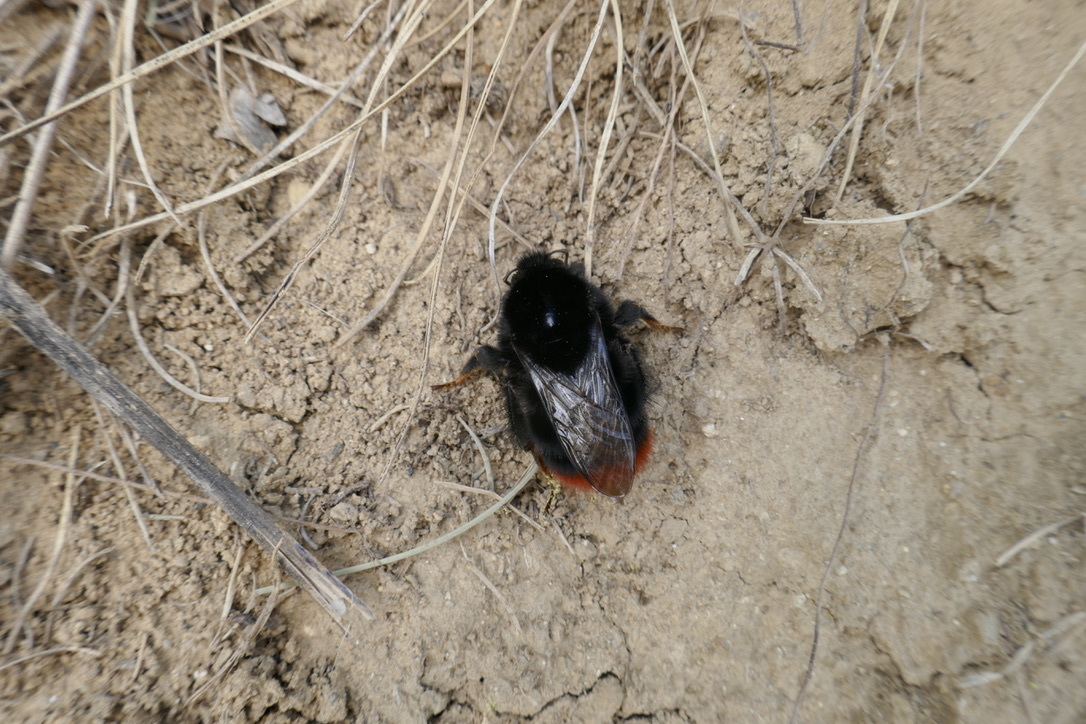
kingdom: Animalia
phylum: Arthropoda
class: Insecta
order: Hymenoptera
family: Apidae
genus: Bombus
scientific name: Bombus lapidarius
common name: Large red-tailed humble-bee
